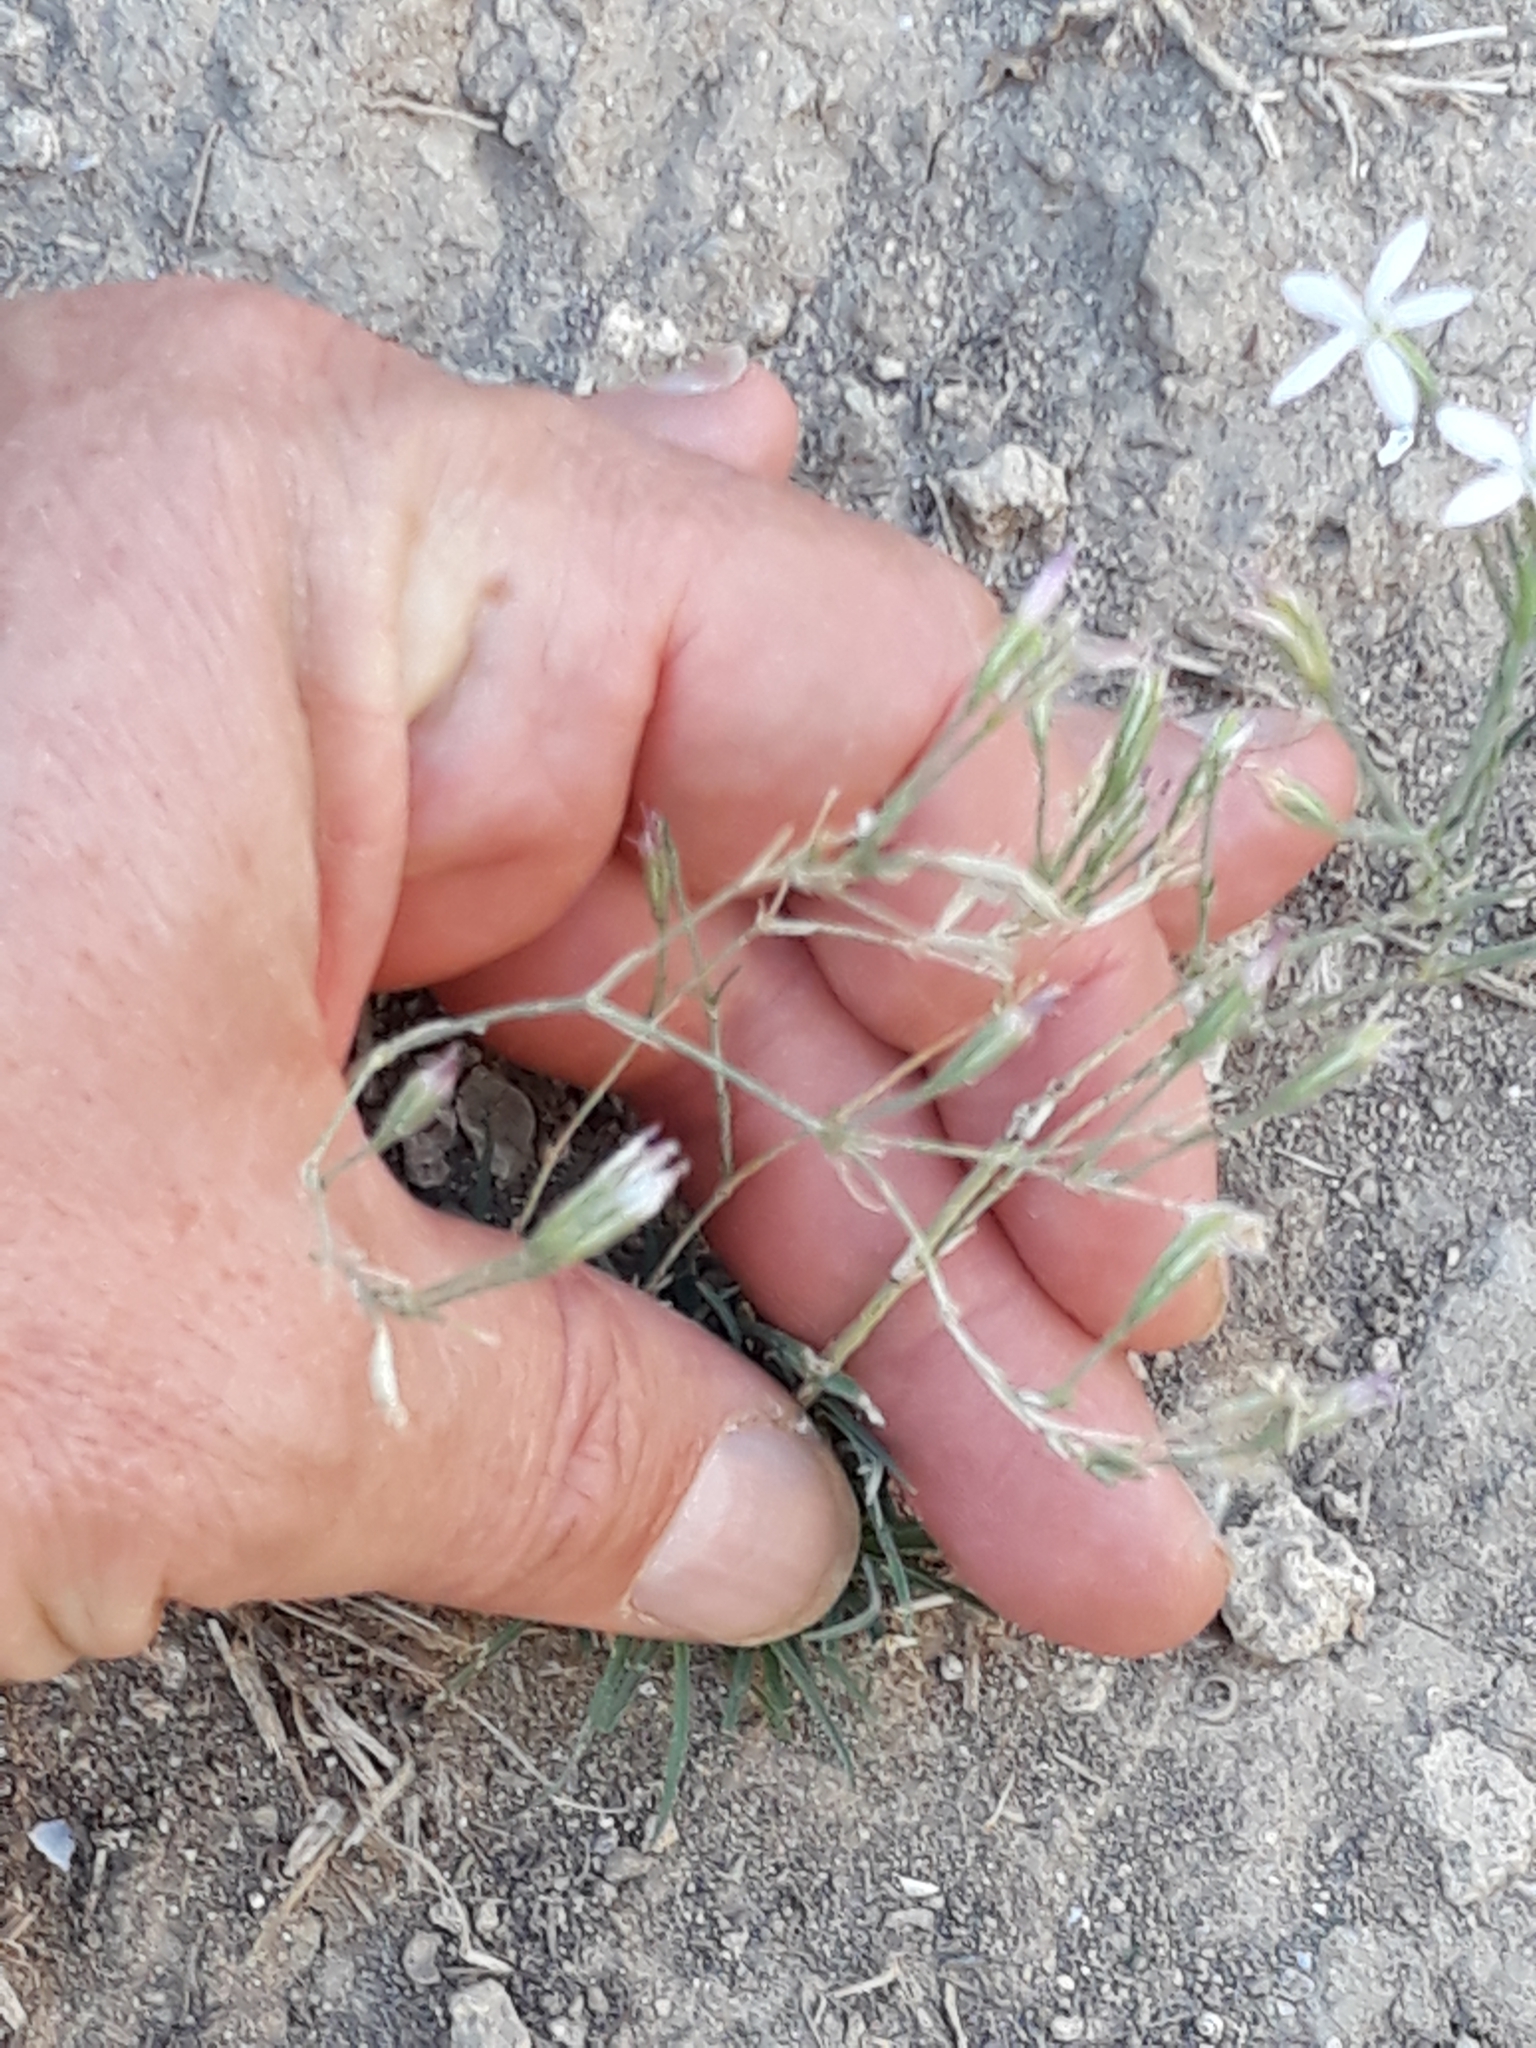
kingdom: Plantae
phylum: Tracheophyta
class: Magnoliopsida
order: Caryophyllales
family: Caryophyllaceae
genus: Dianthus
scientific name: Dianthus illyricus
